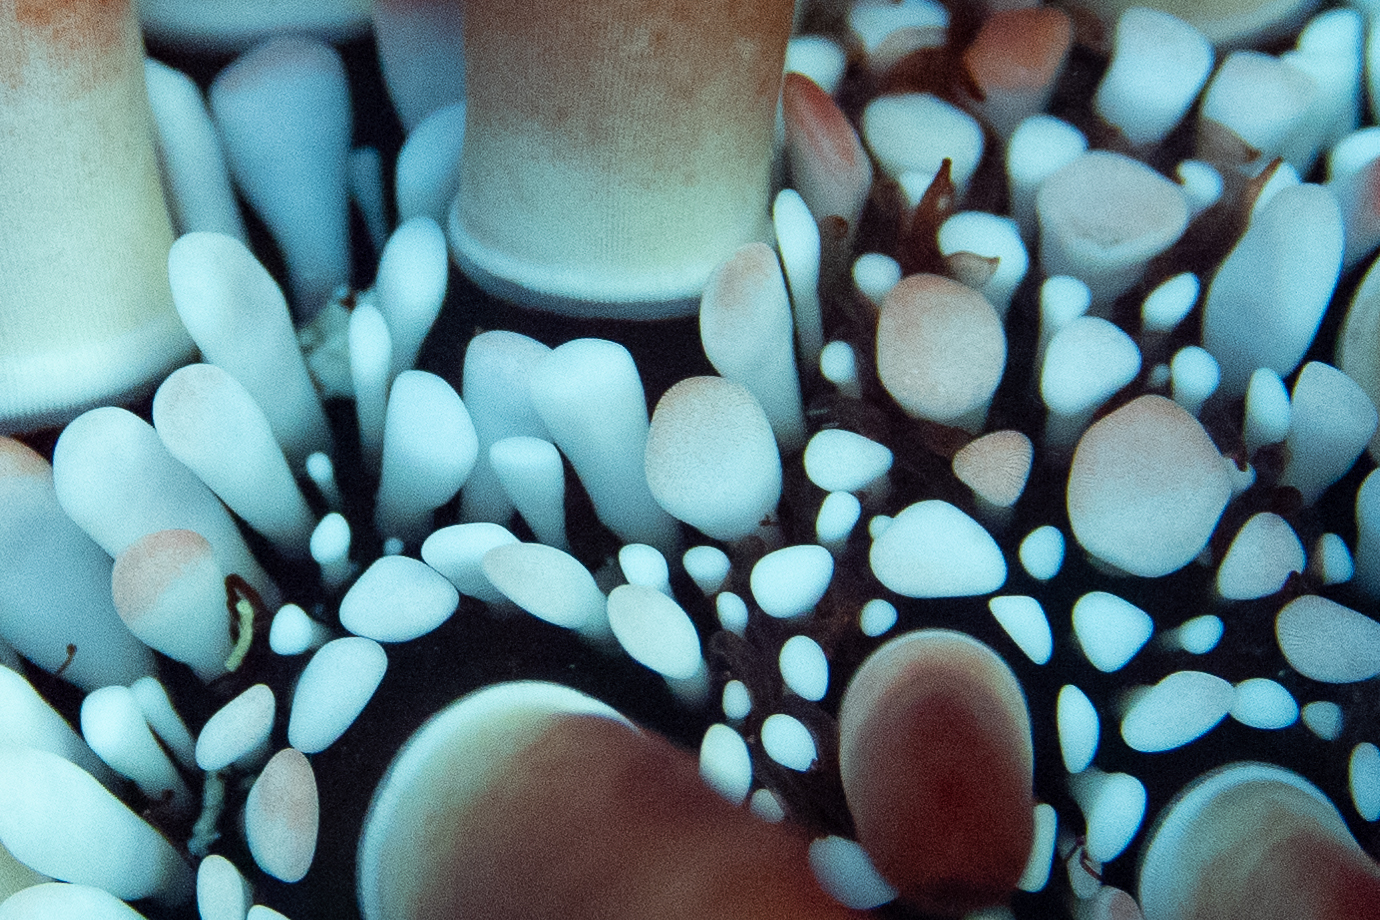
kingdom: Animalia
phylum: Echinodermata
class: Echinoidea
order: Camarodonta
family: Echinometridae
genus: Heterocentrotus
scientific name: Heterocentrotus mamillatus
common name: Slate pencil urchin
